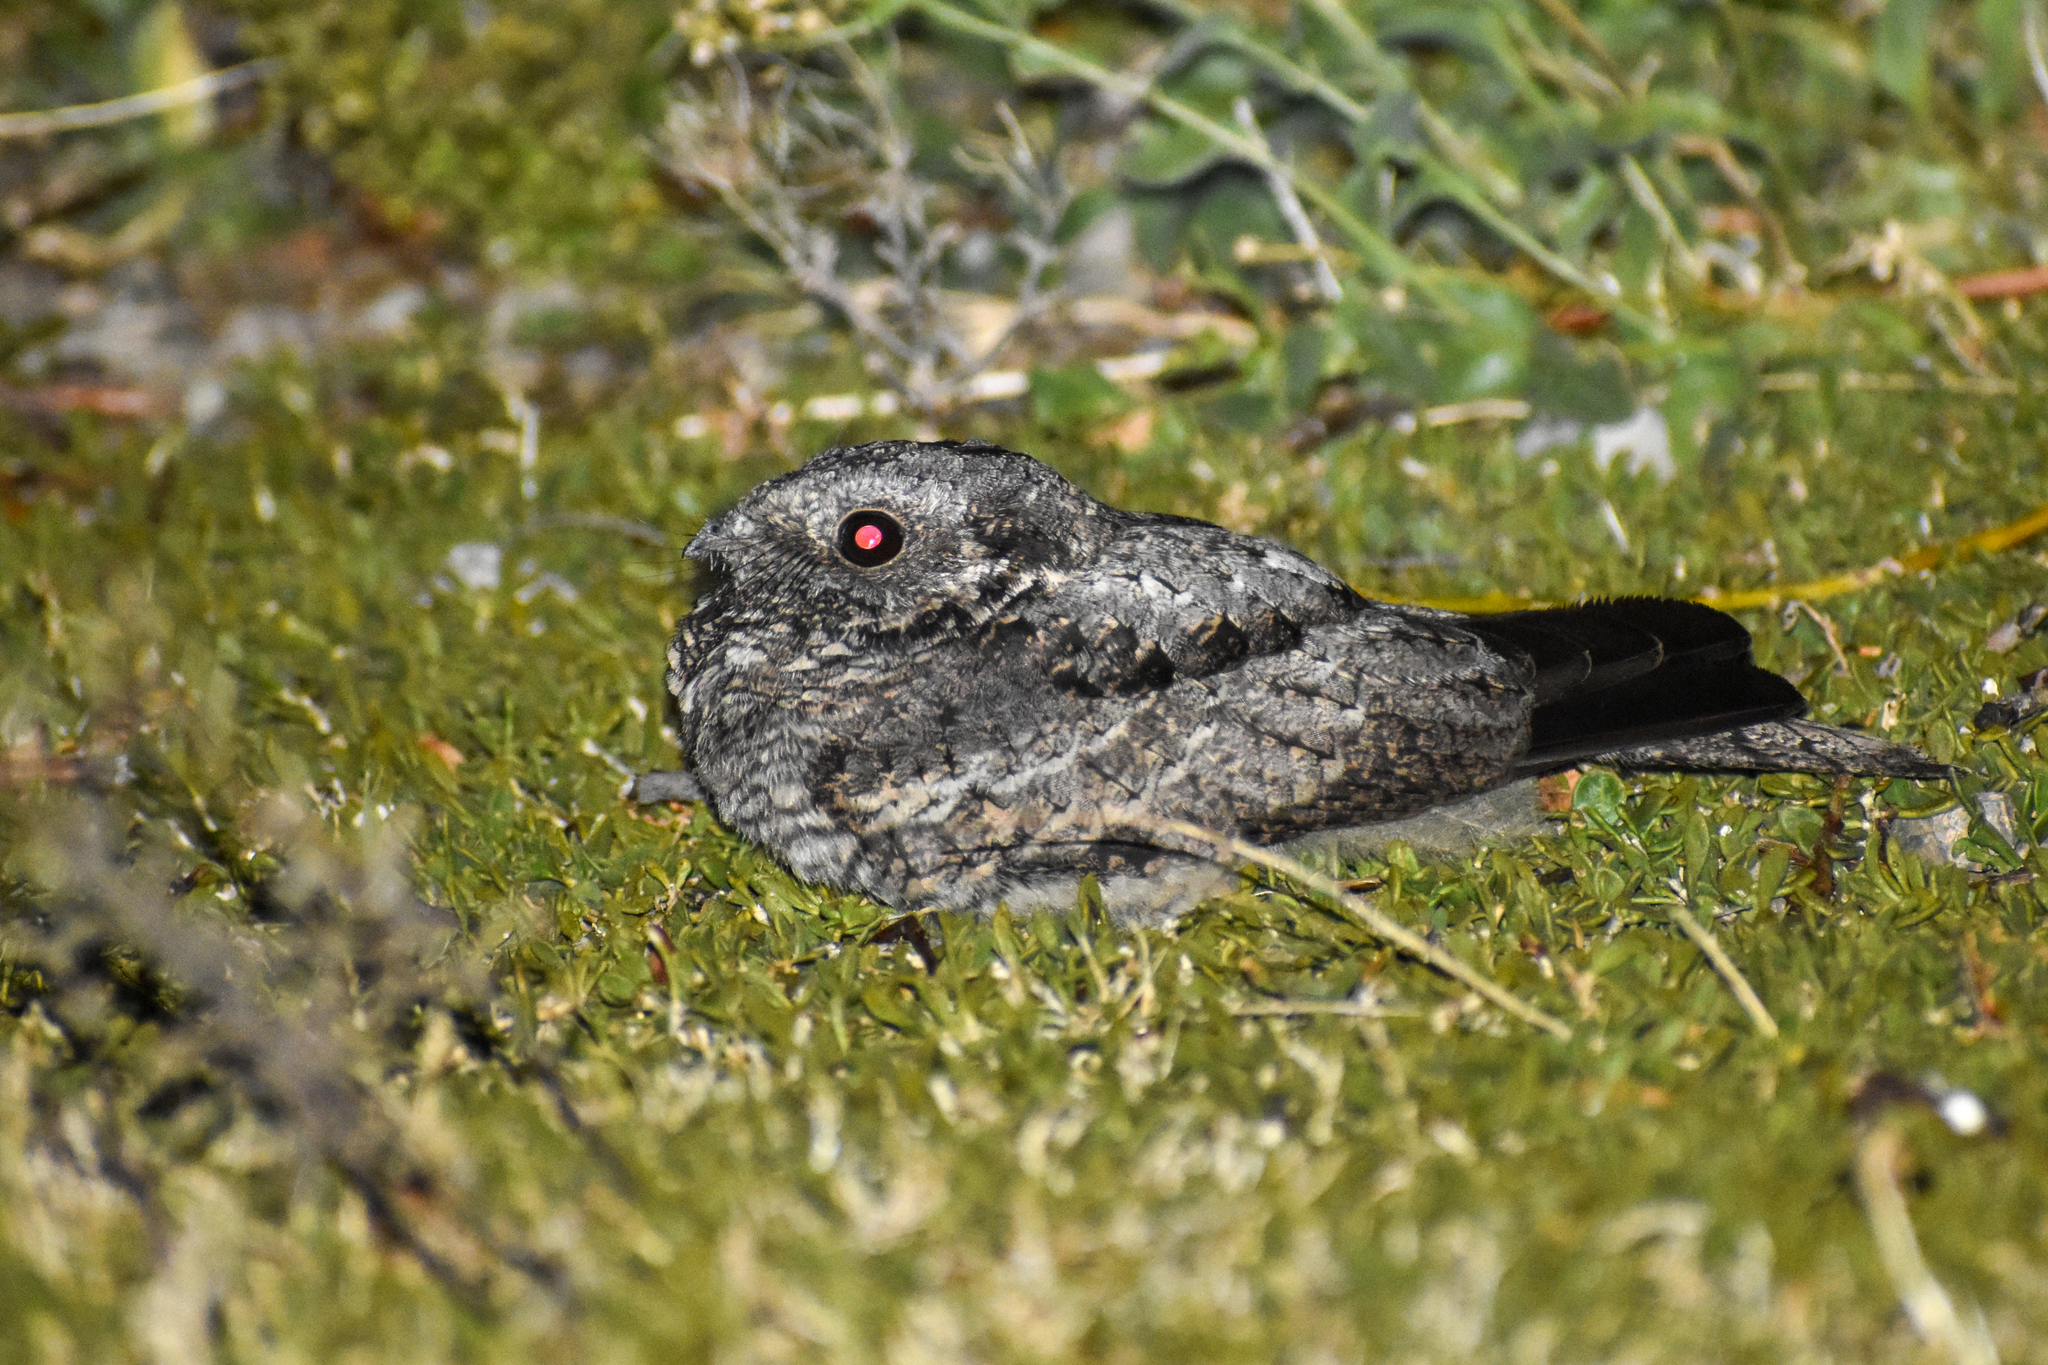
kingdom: Animalia
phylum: Chordata
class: Aves
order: Caprimulgiformes
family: Caprimulgidae
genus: Systellura
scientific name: Systellura longirostris
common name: Band-winged nightjar
